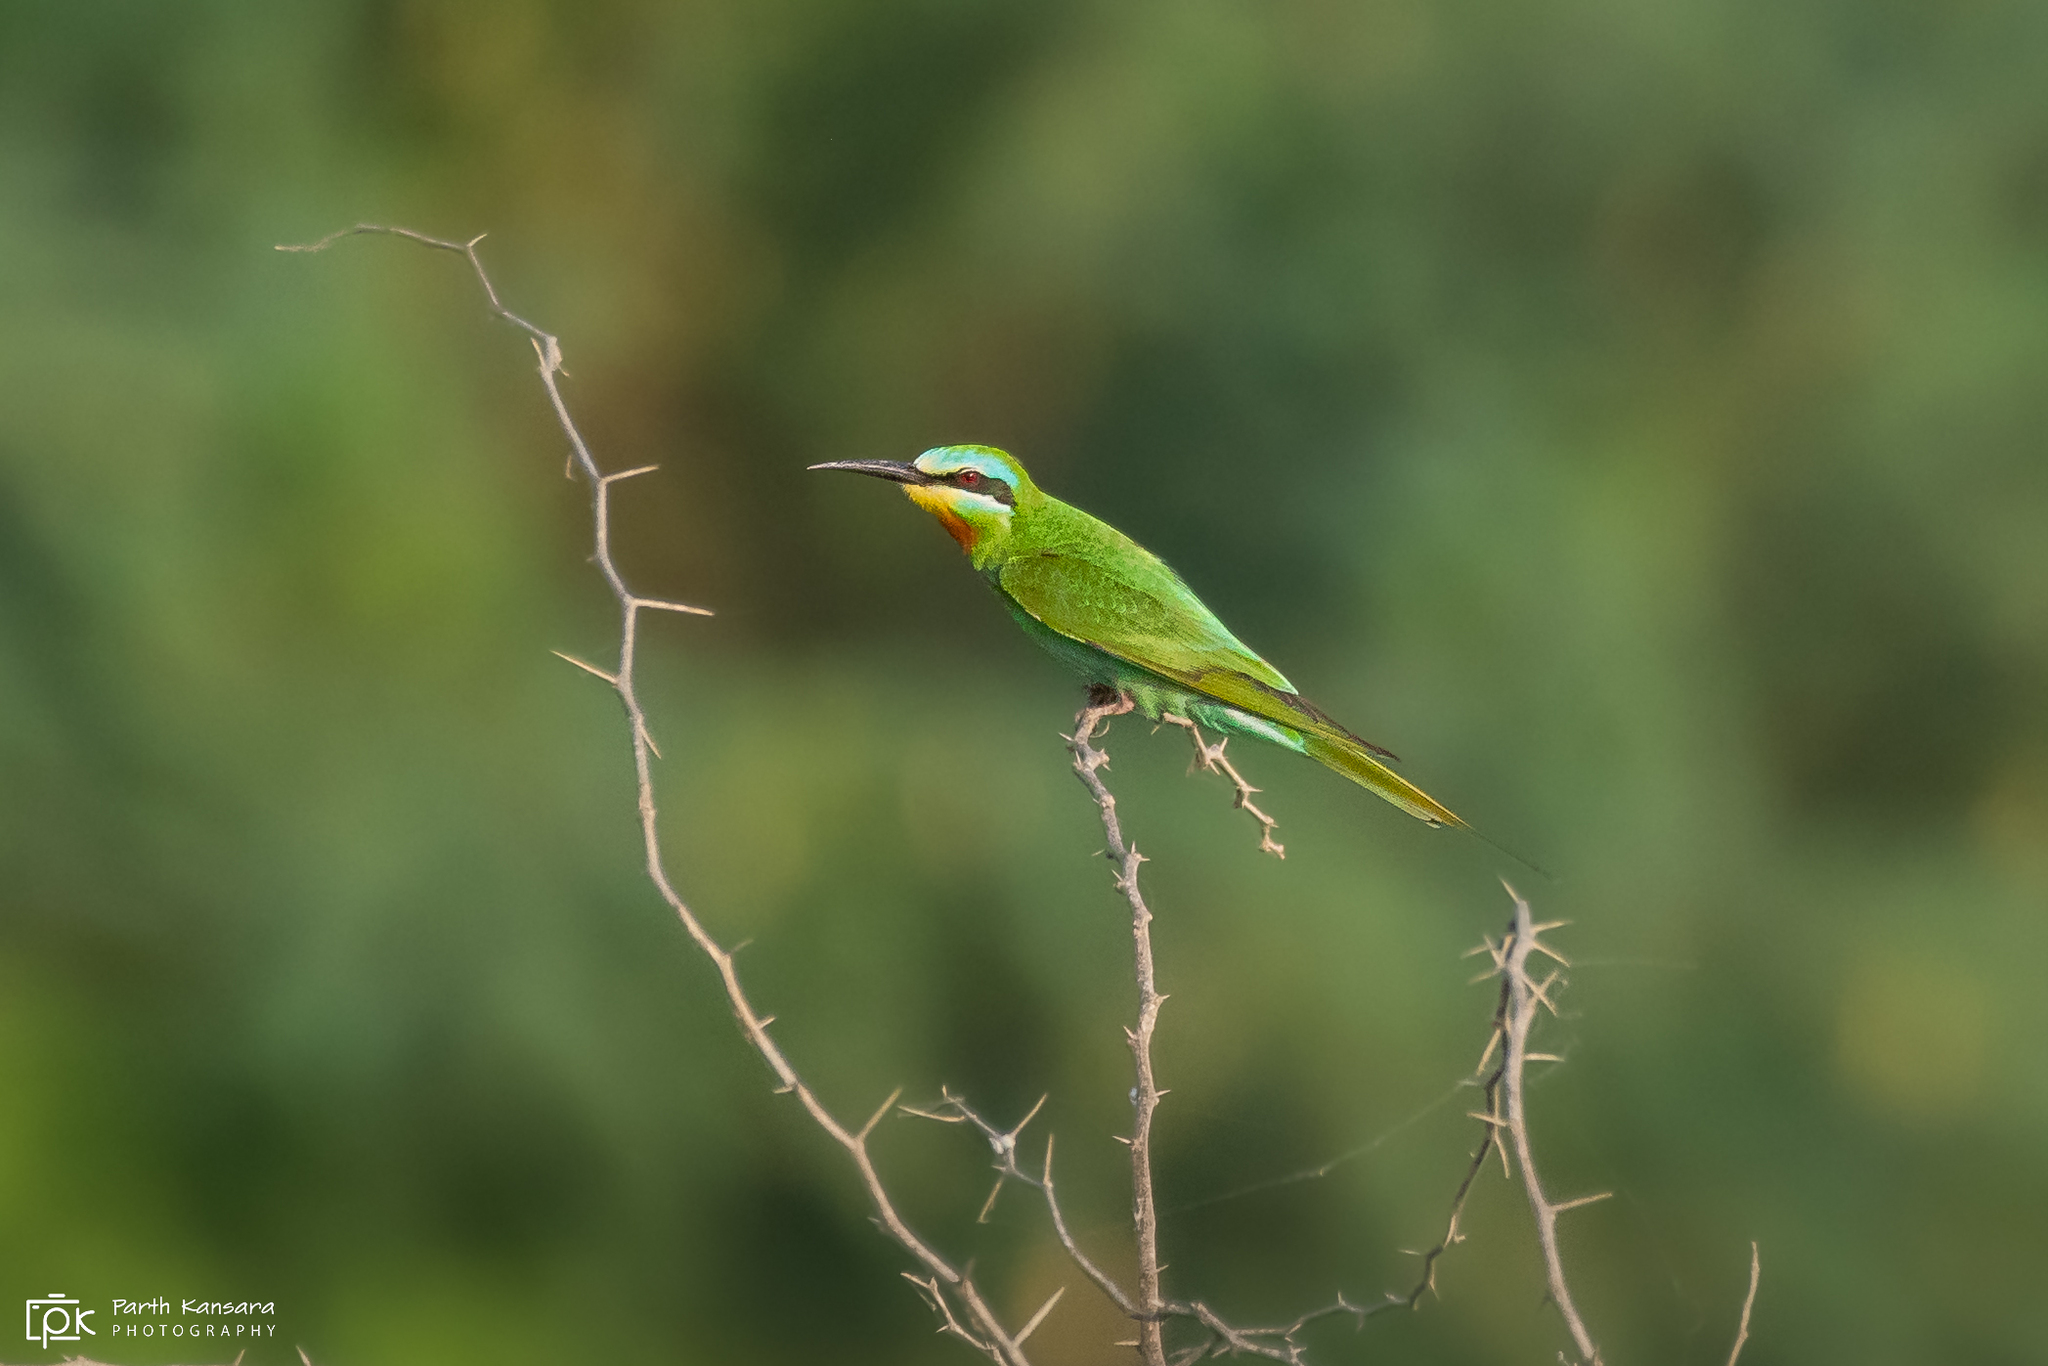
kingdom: Animalia
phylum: Chordata
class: Aves
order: Coraciiformes
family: Meropidae
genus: Merops
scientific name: Merops persicus
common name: Blue-cheeked bee-eater
